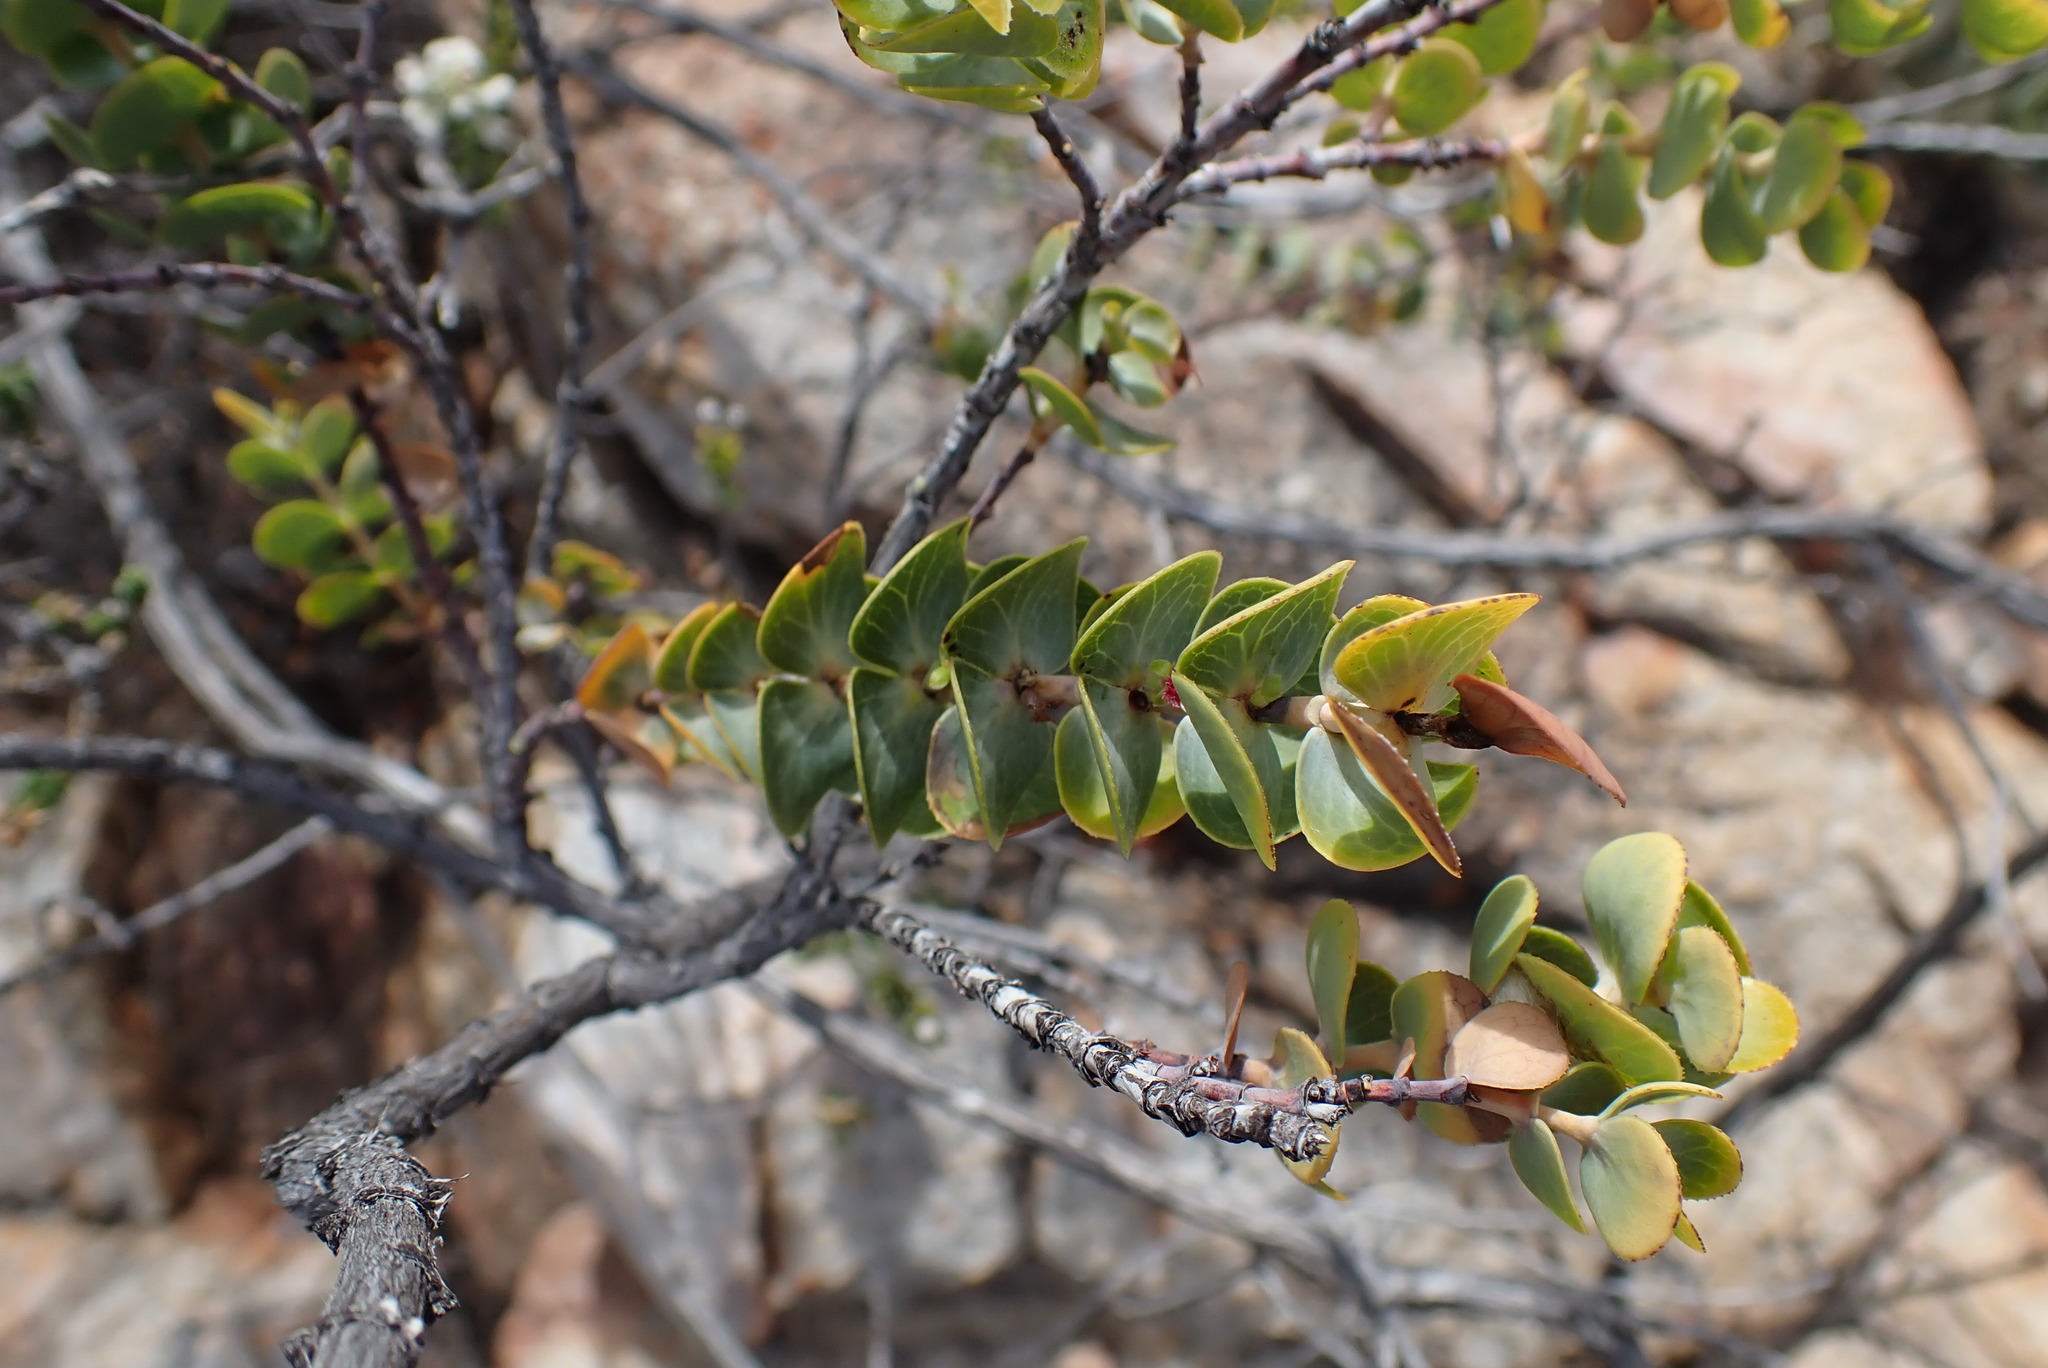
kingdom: Plantae
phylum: Tracheophyta
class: Magnoliopsida
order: Rosales
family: Rosaceae
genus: Cliffortia
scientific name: Cliffortia crenata
